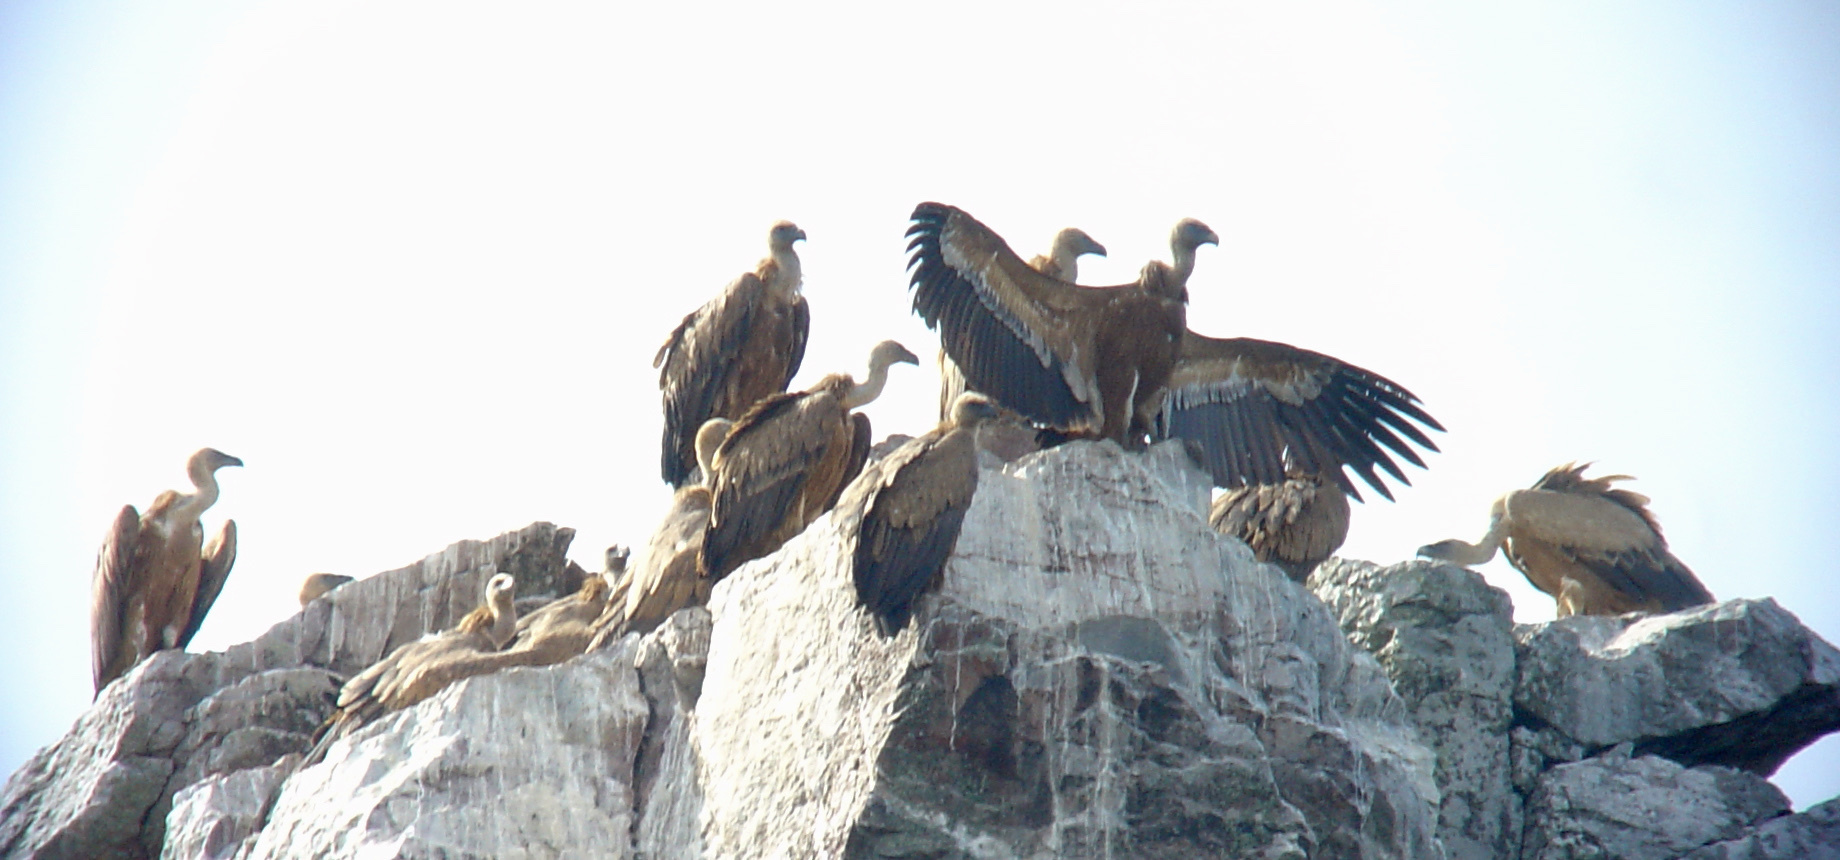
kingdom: Animalia
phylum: Chordata
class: Aves
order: Accipitriformes
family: Accipitridae
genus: Gyps
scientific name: Gyps fulvus
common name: Griffon vulture
